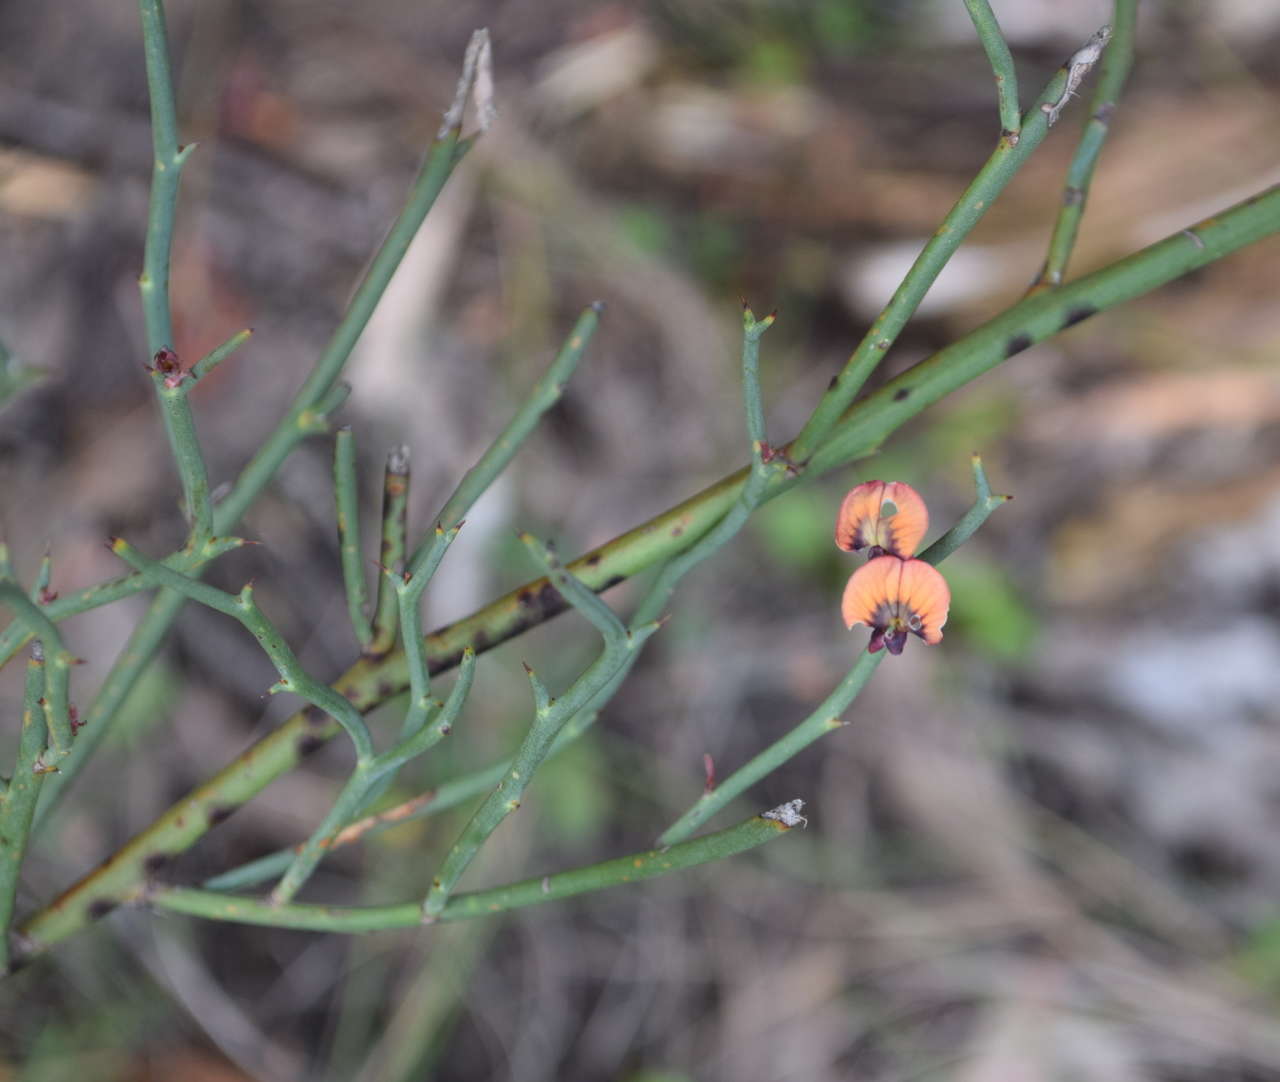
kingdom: Plantae
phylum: Tracheophyta
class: Magnoliopsida
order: Fabales
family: Fabaceae
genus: Daviesia
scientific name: Daviesia brevifolia
